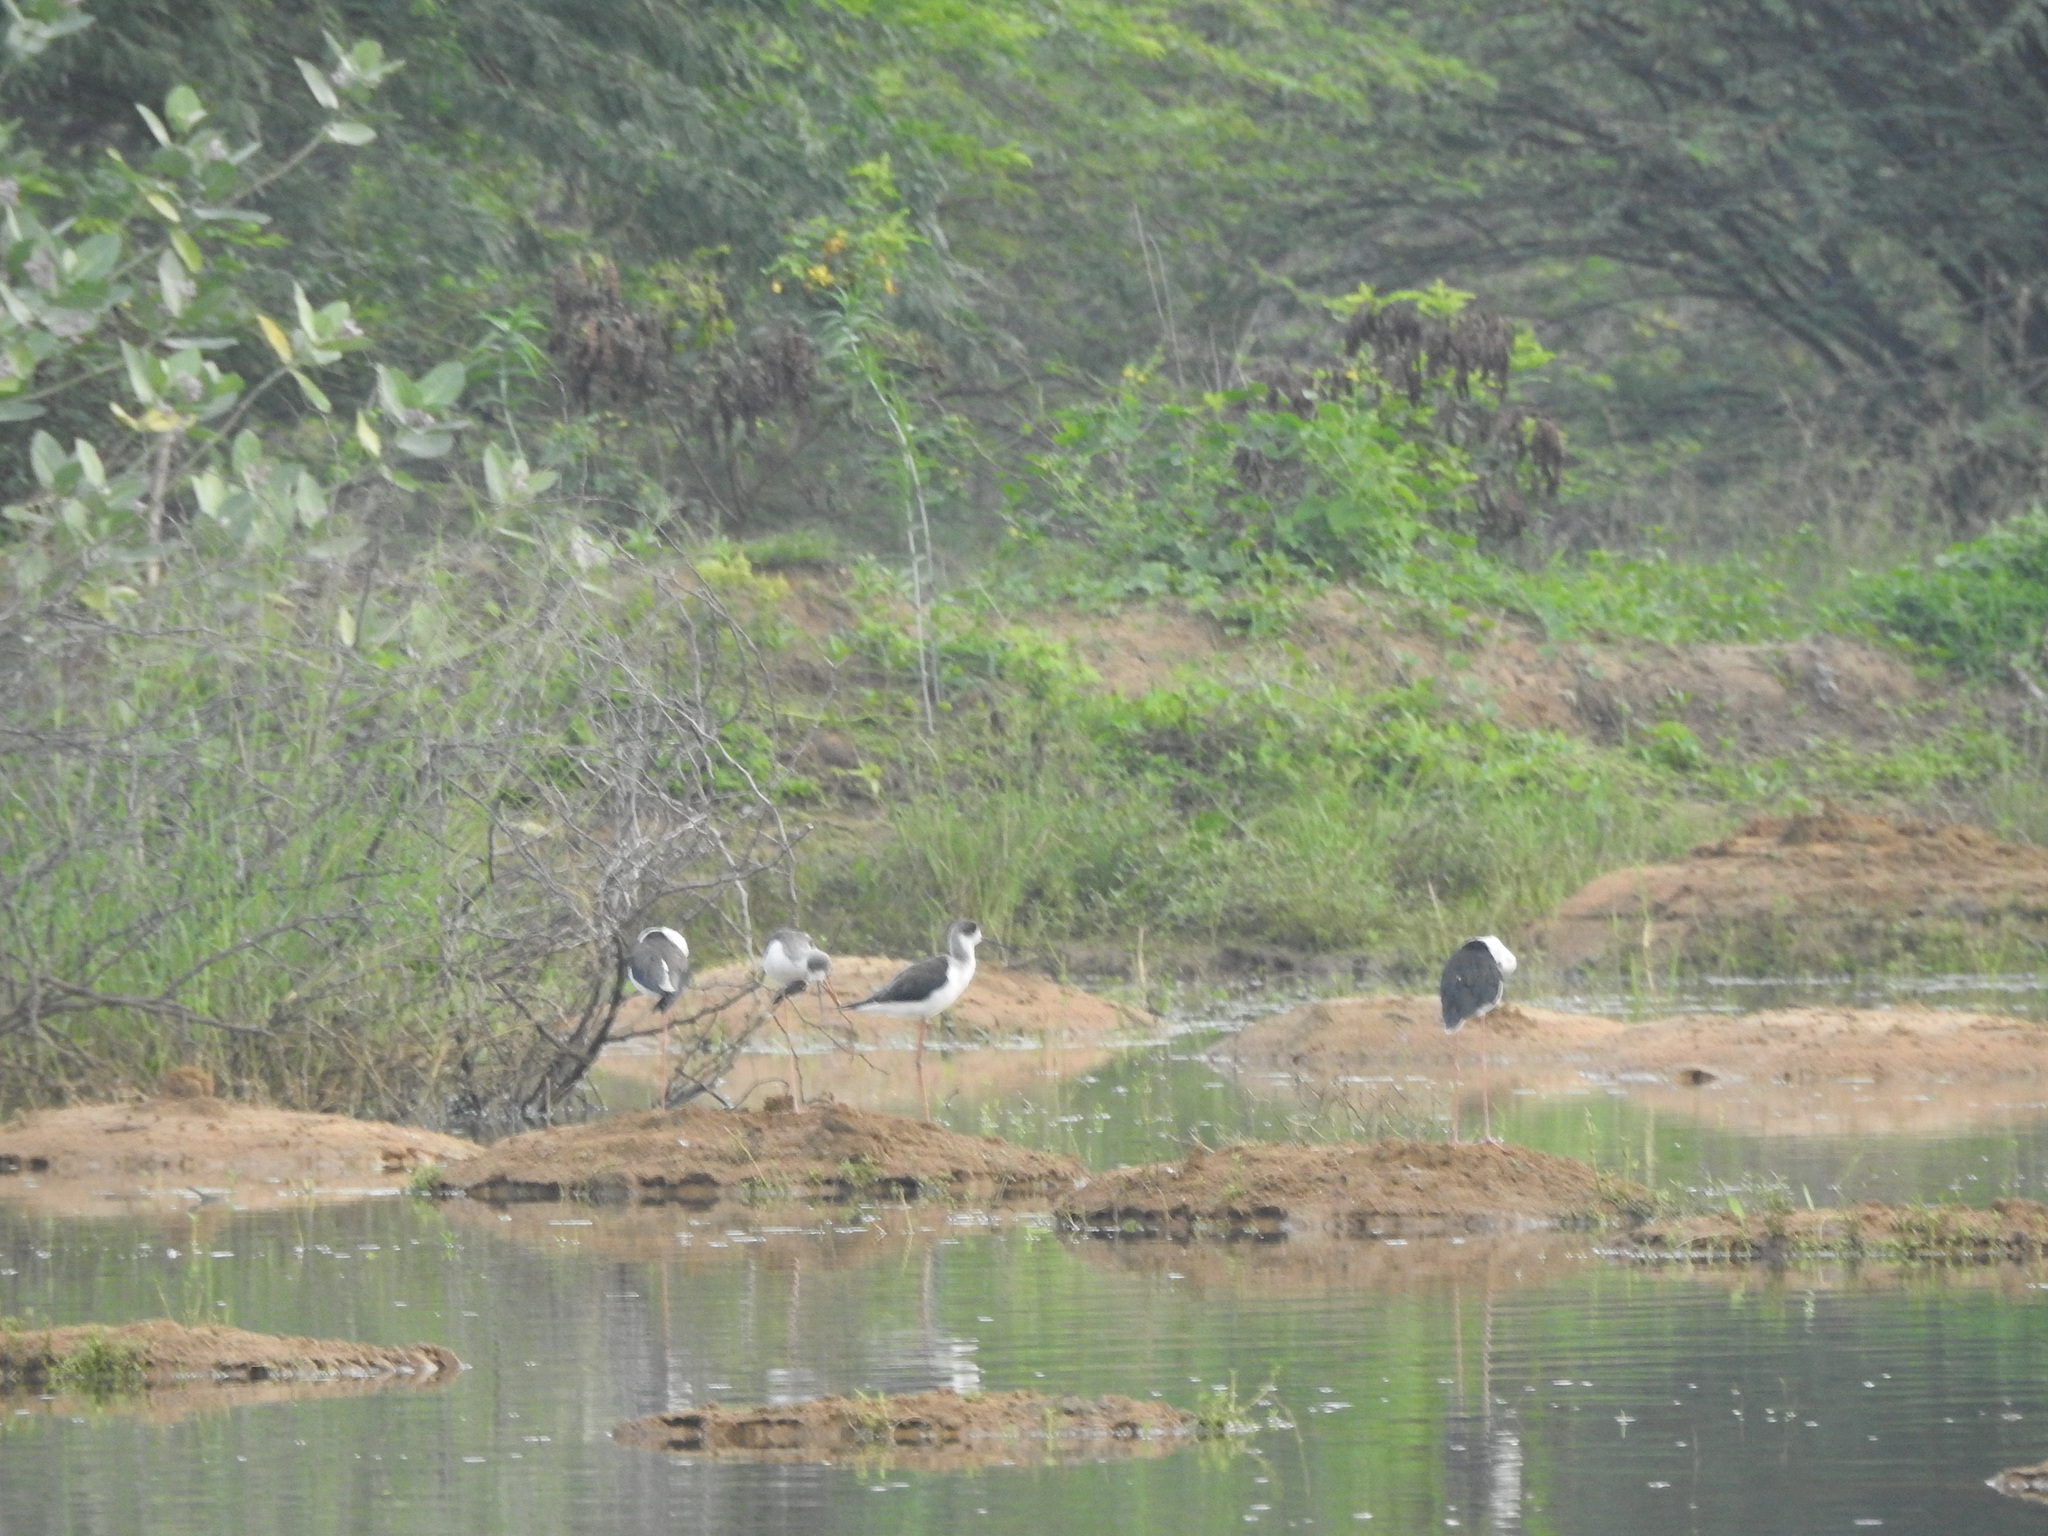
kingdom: Animalia
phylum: Chordata
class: Aves
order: Charadriiformes
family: Recurvirostridae
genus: Himantopus
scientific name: Himantopus himantopus
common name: Black-winged stilt
